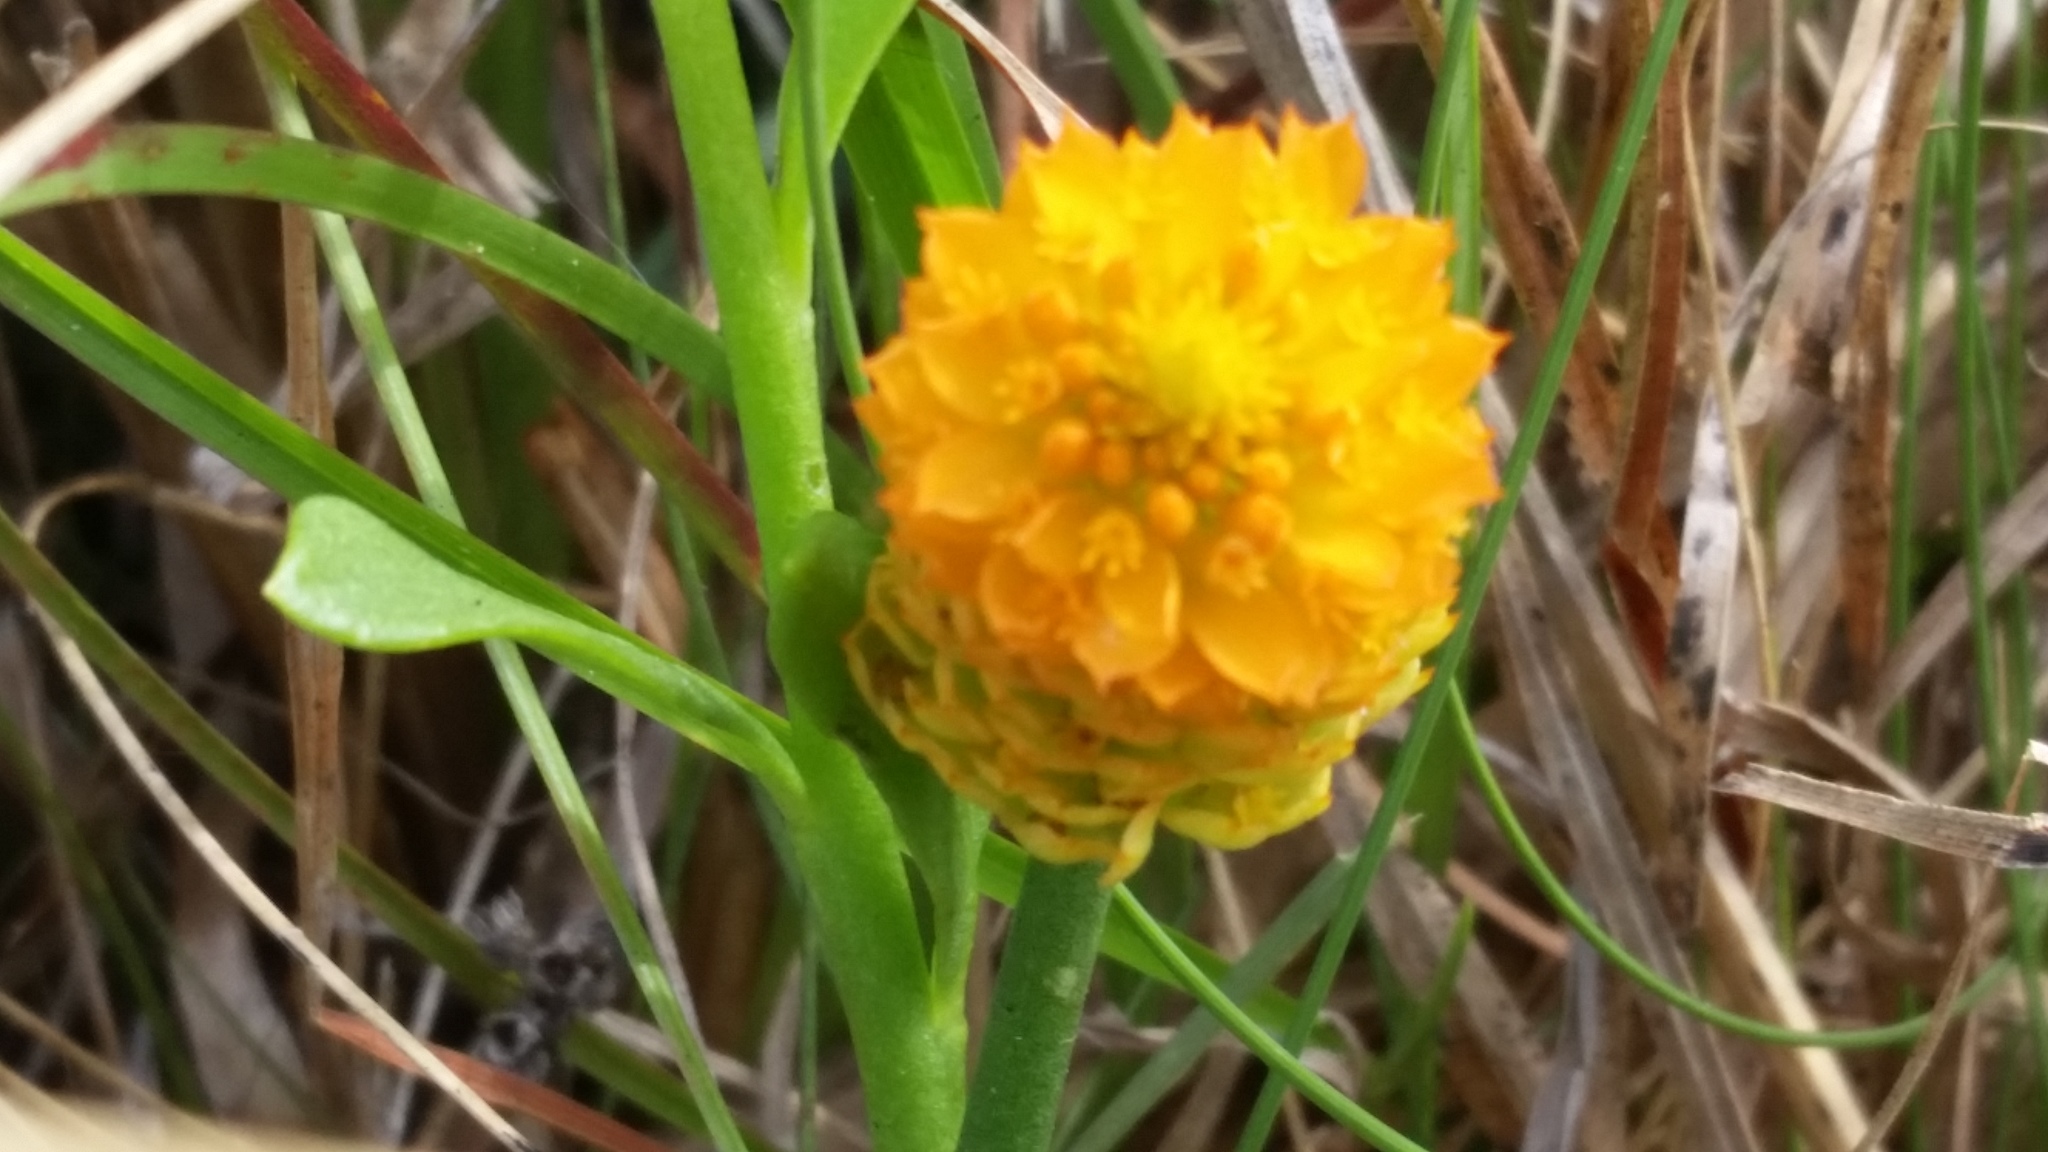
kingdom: Plantae
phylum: Tracheophyta
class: Magnoliopsida
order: Fabales
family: Polygalaceae
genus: Polygala
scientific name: Polygala lutea
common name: Orange milkwort
